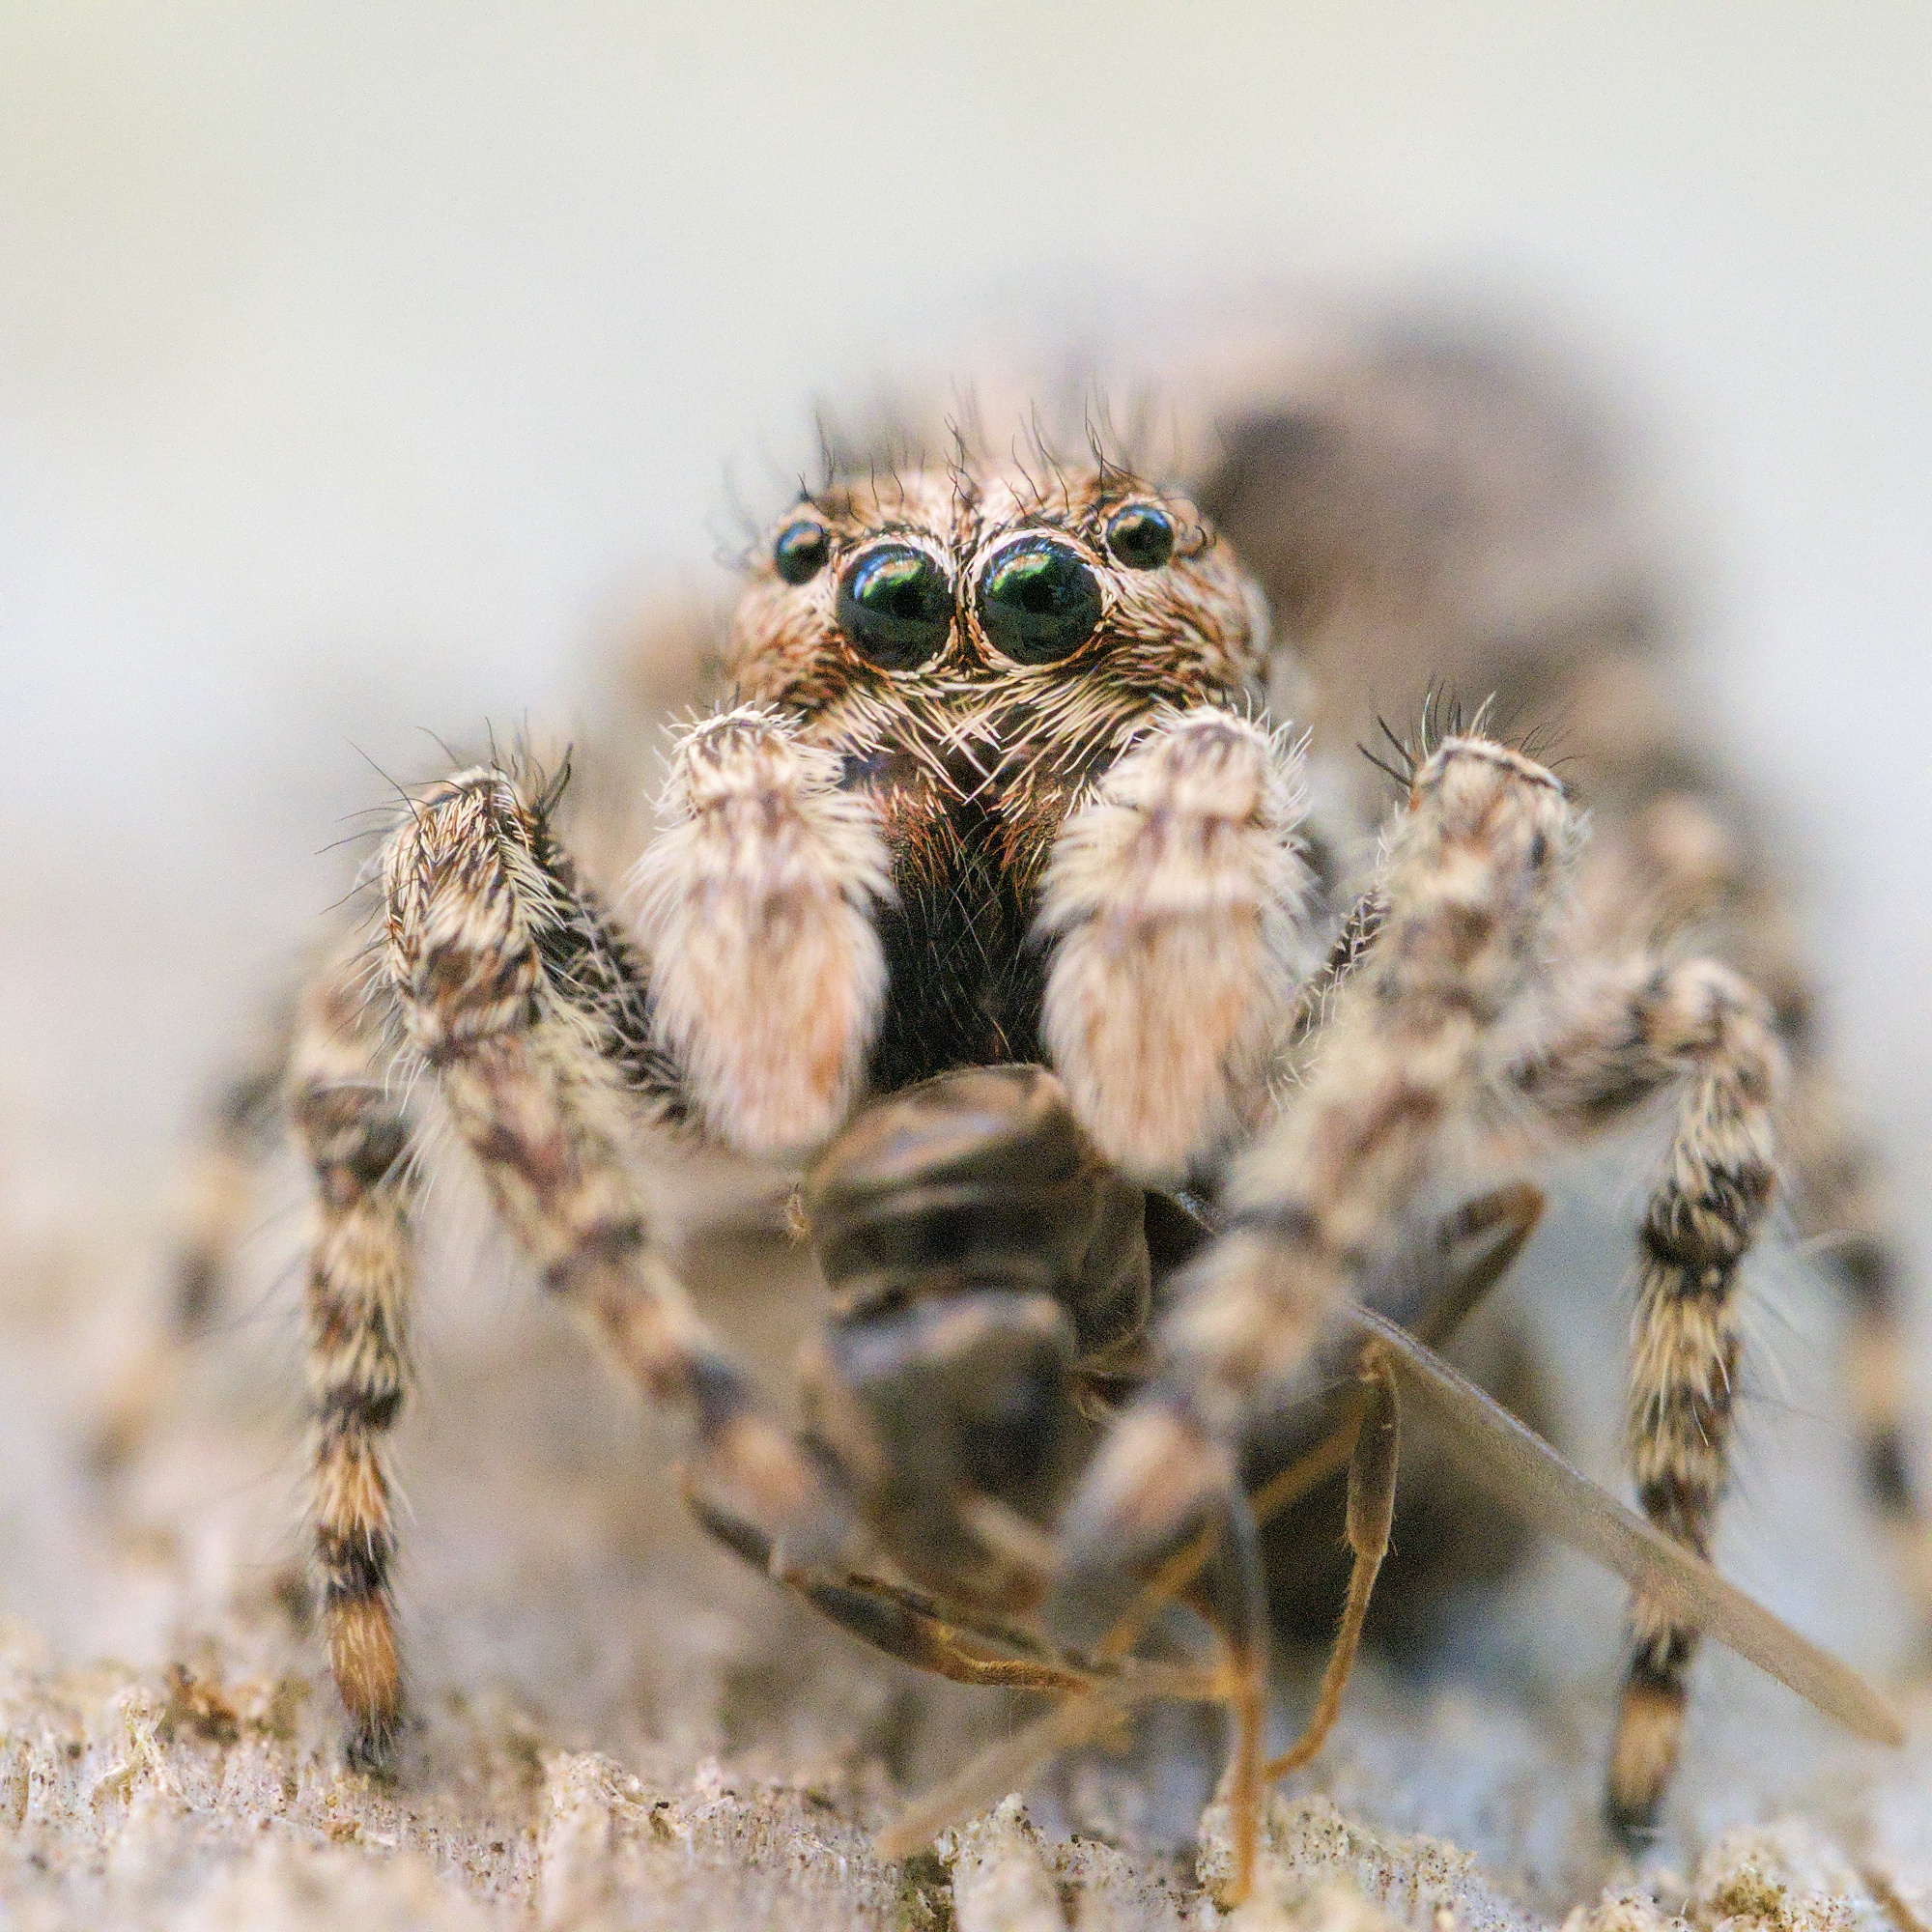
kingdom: Animalia
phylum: Arthropoda
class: Arachnida
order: Araneae
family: Salticidae
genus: Clynotis
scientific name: Clynotis severus
